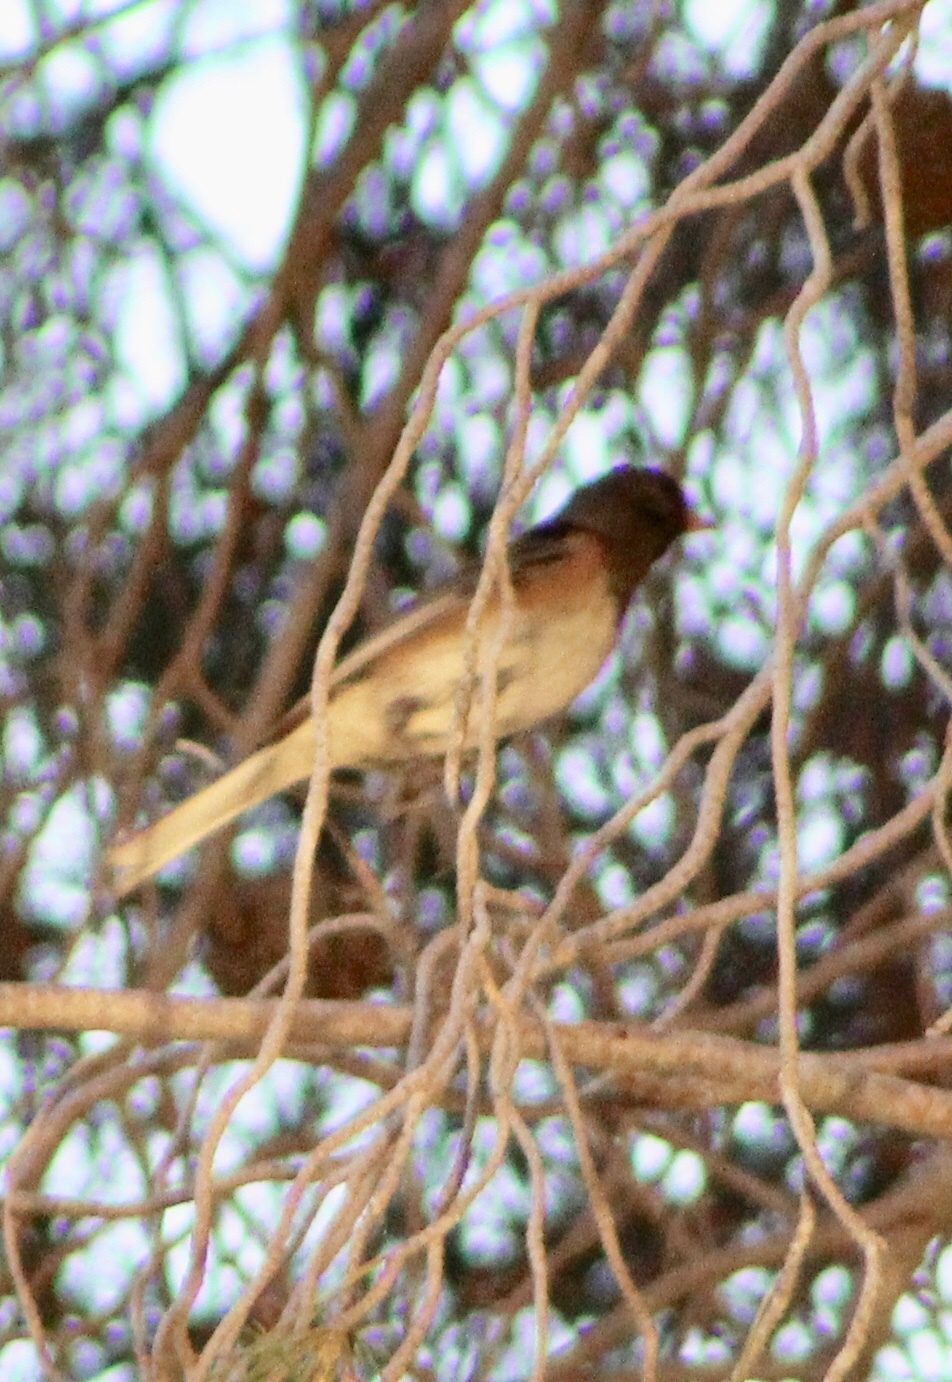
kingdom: Animalia
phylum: Chordata
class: Aves
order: Passeriformes
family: Passerellidae
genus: Junco
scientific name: Junco hyemalis
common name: Dark-eyed junco
